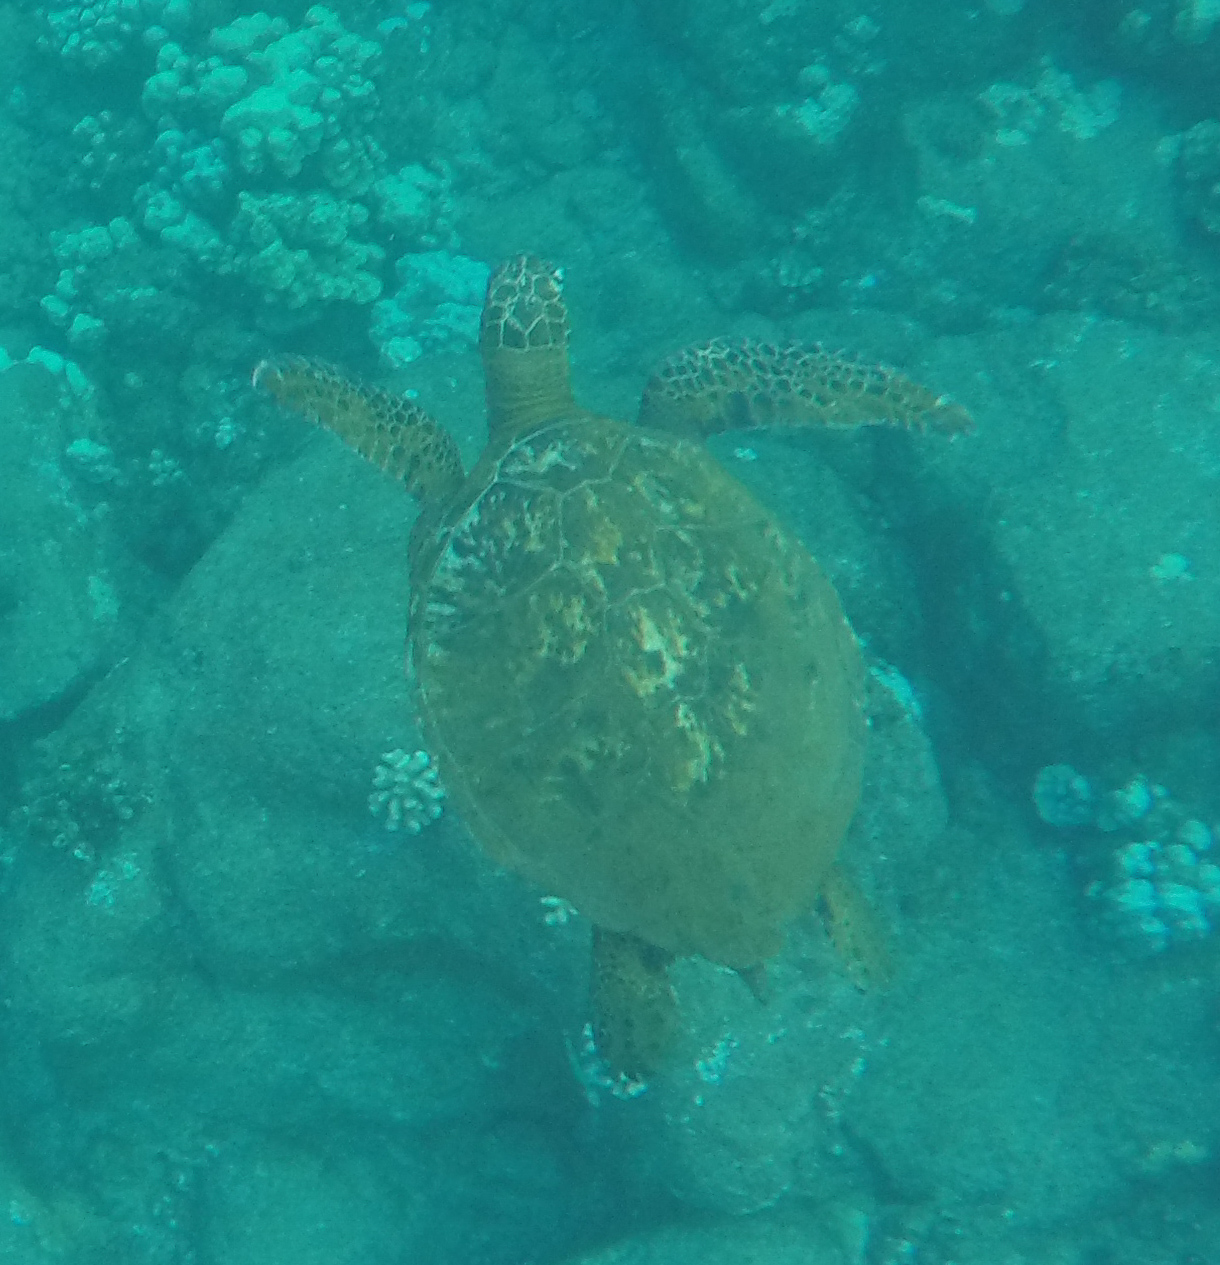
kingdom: Animalia
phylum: Chordata
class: Testudines
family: Cheloniidae
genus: Chelonia
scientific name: Chelonia mydas
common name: Green turtle
